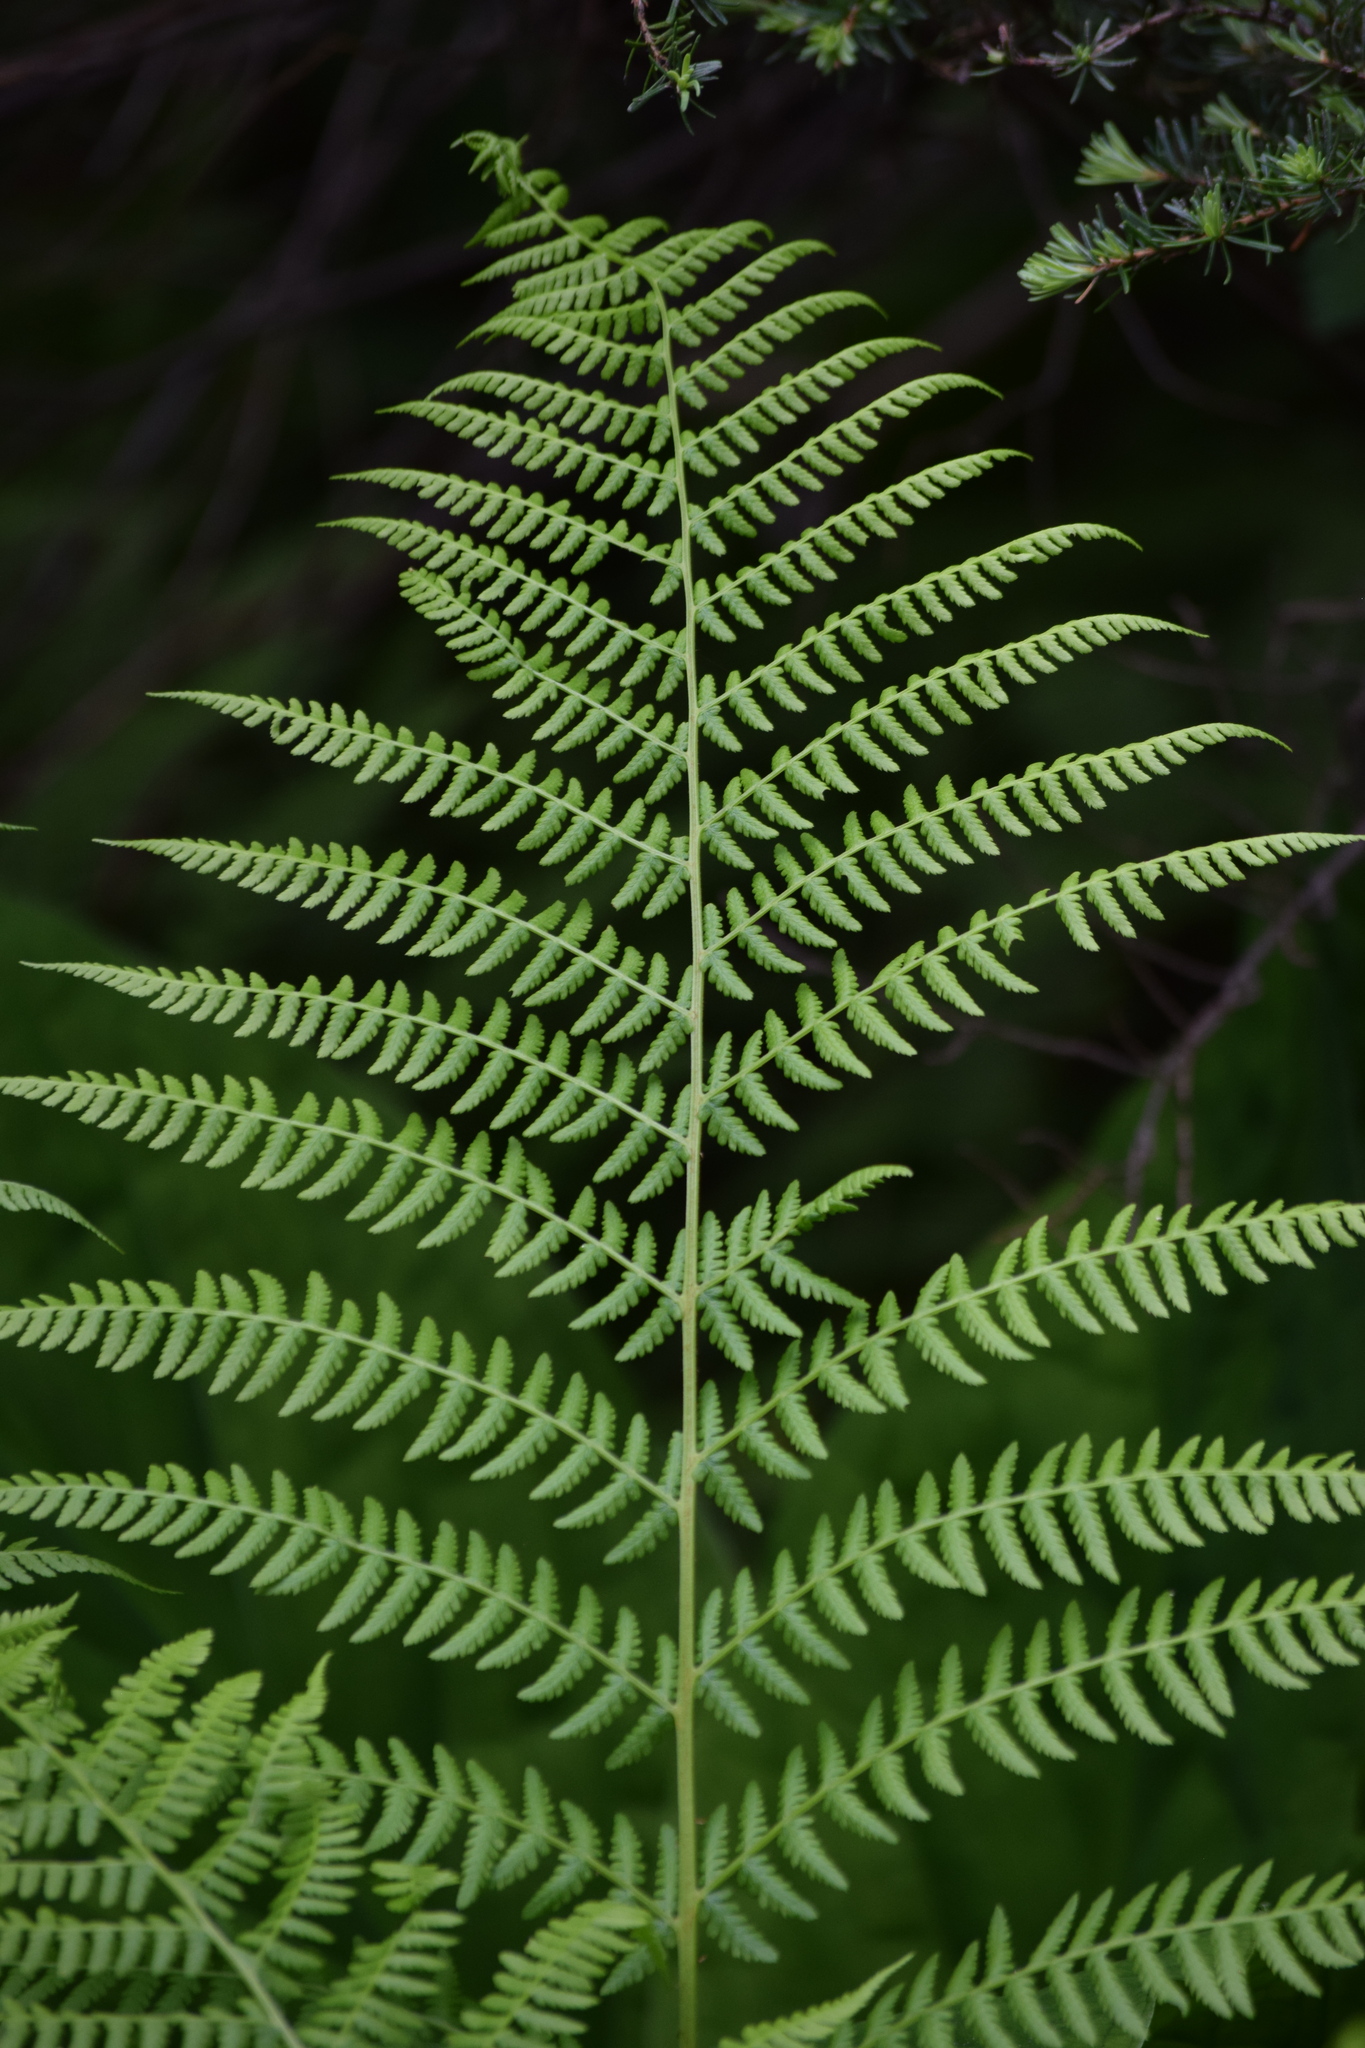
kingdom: Plantae
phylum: Tracheophyta
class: Polypodiopsida
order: Polypodiales
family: Athyriaceae
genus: Athyrium
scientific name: Athyrium filix-femina
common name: Lady fern
